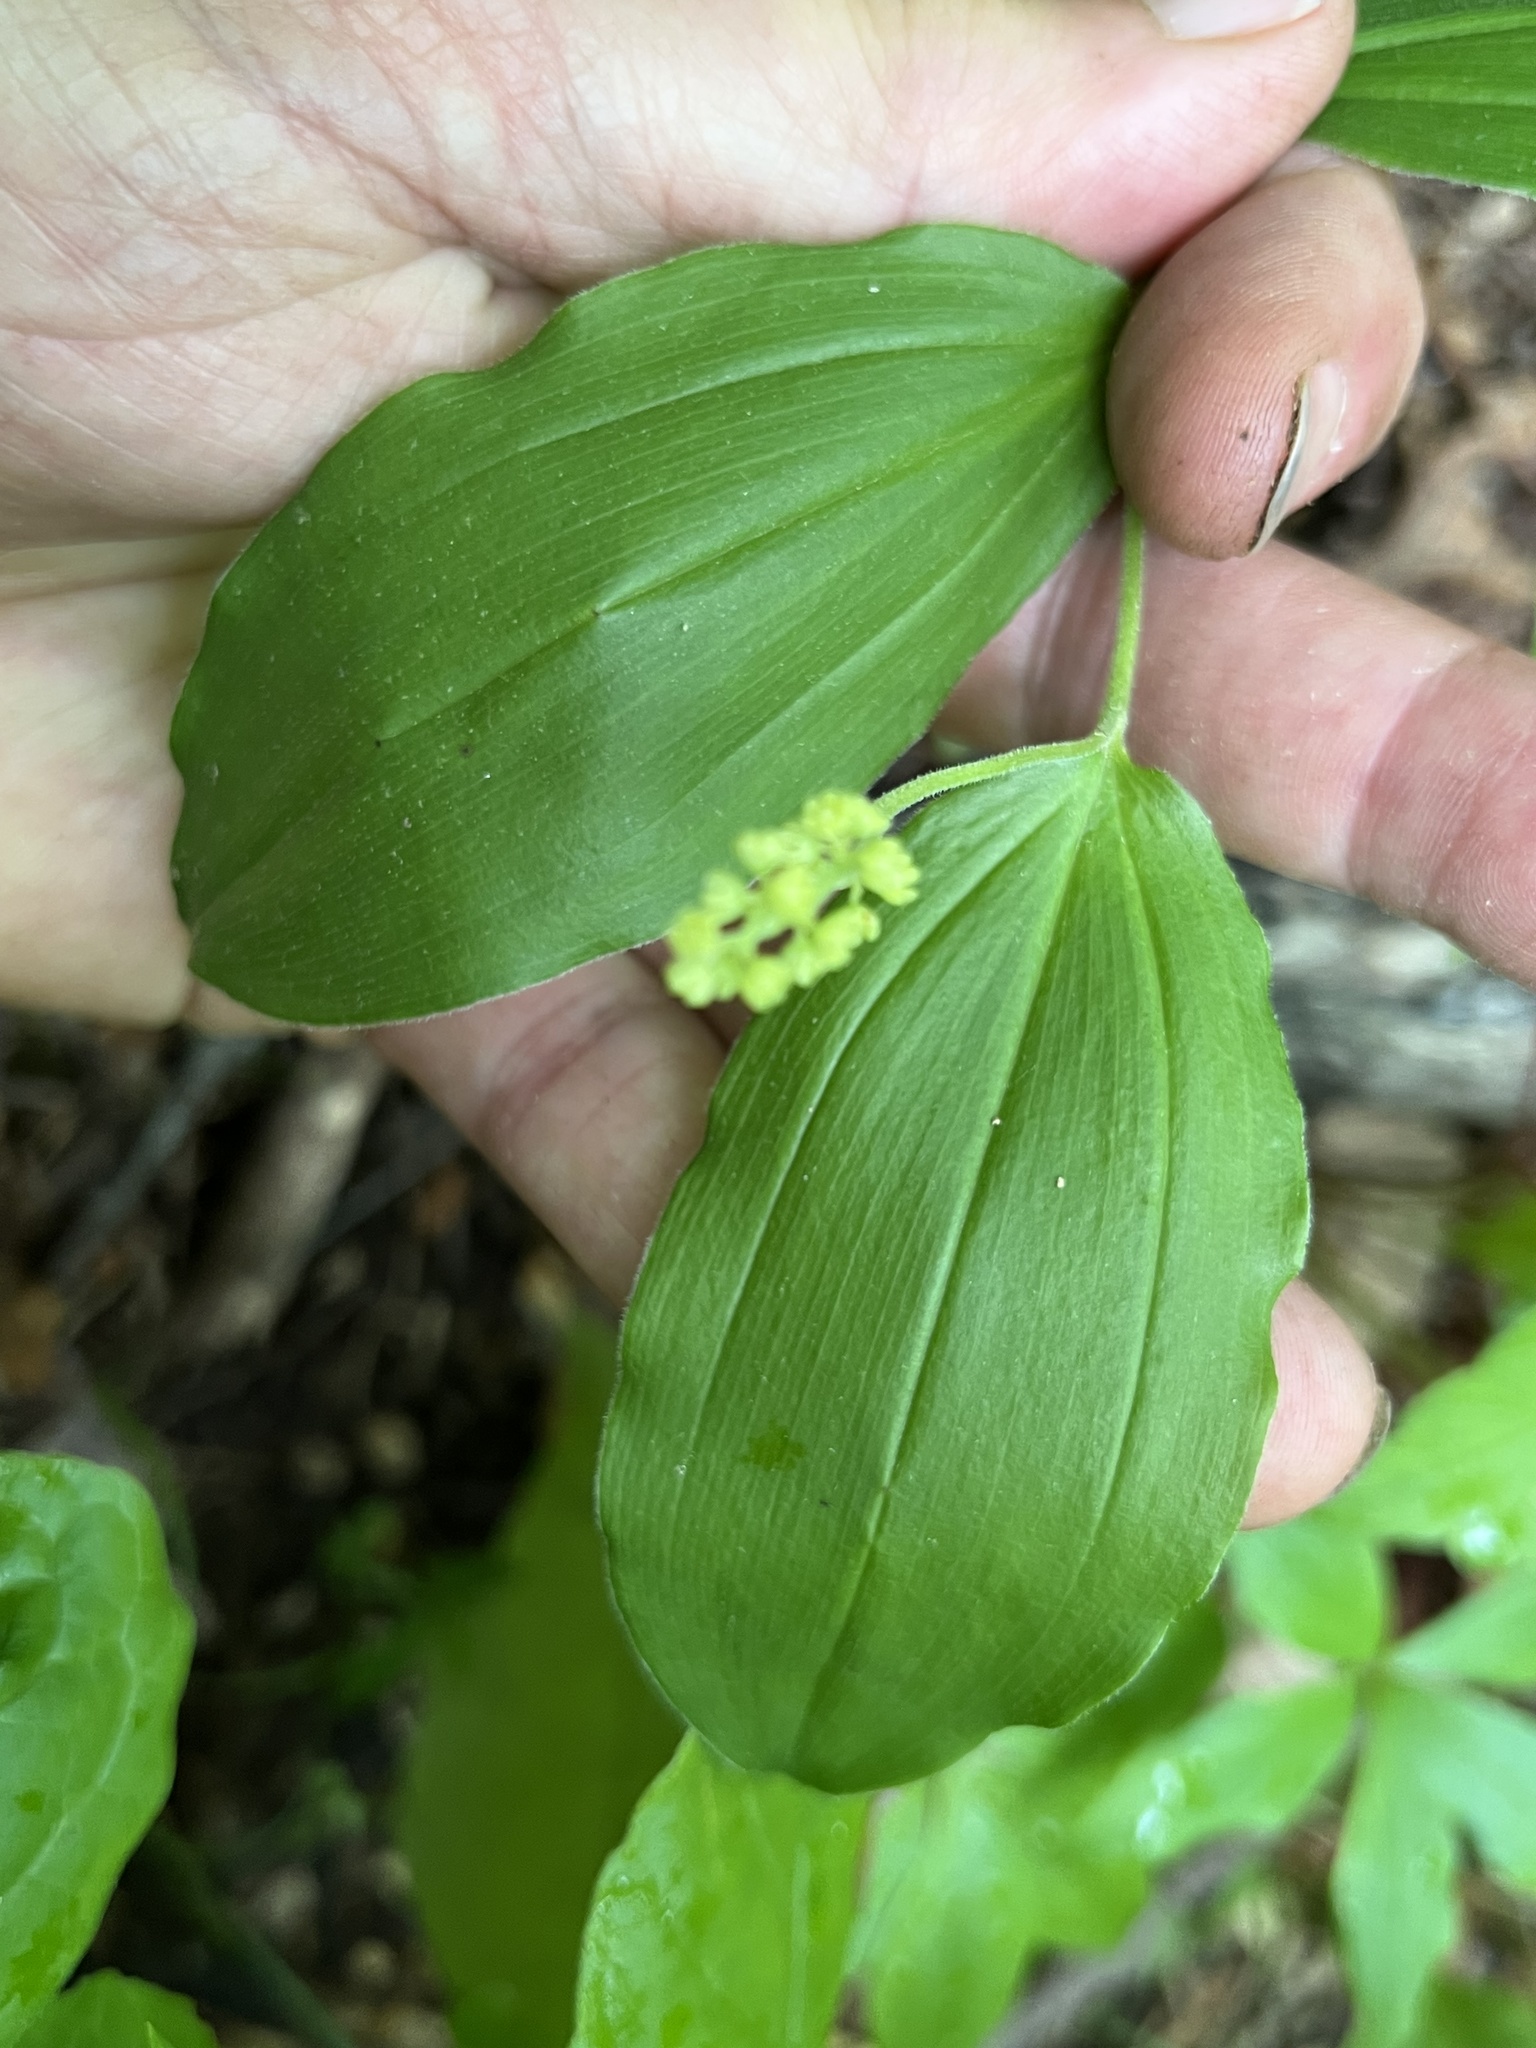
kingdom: Plantae
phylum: Tracheophyta
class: Liliopsida
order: Asparagales
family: Asparagaceae
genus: Maianthemum
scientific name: Maianthemum racemosum
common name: False spikenard
